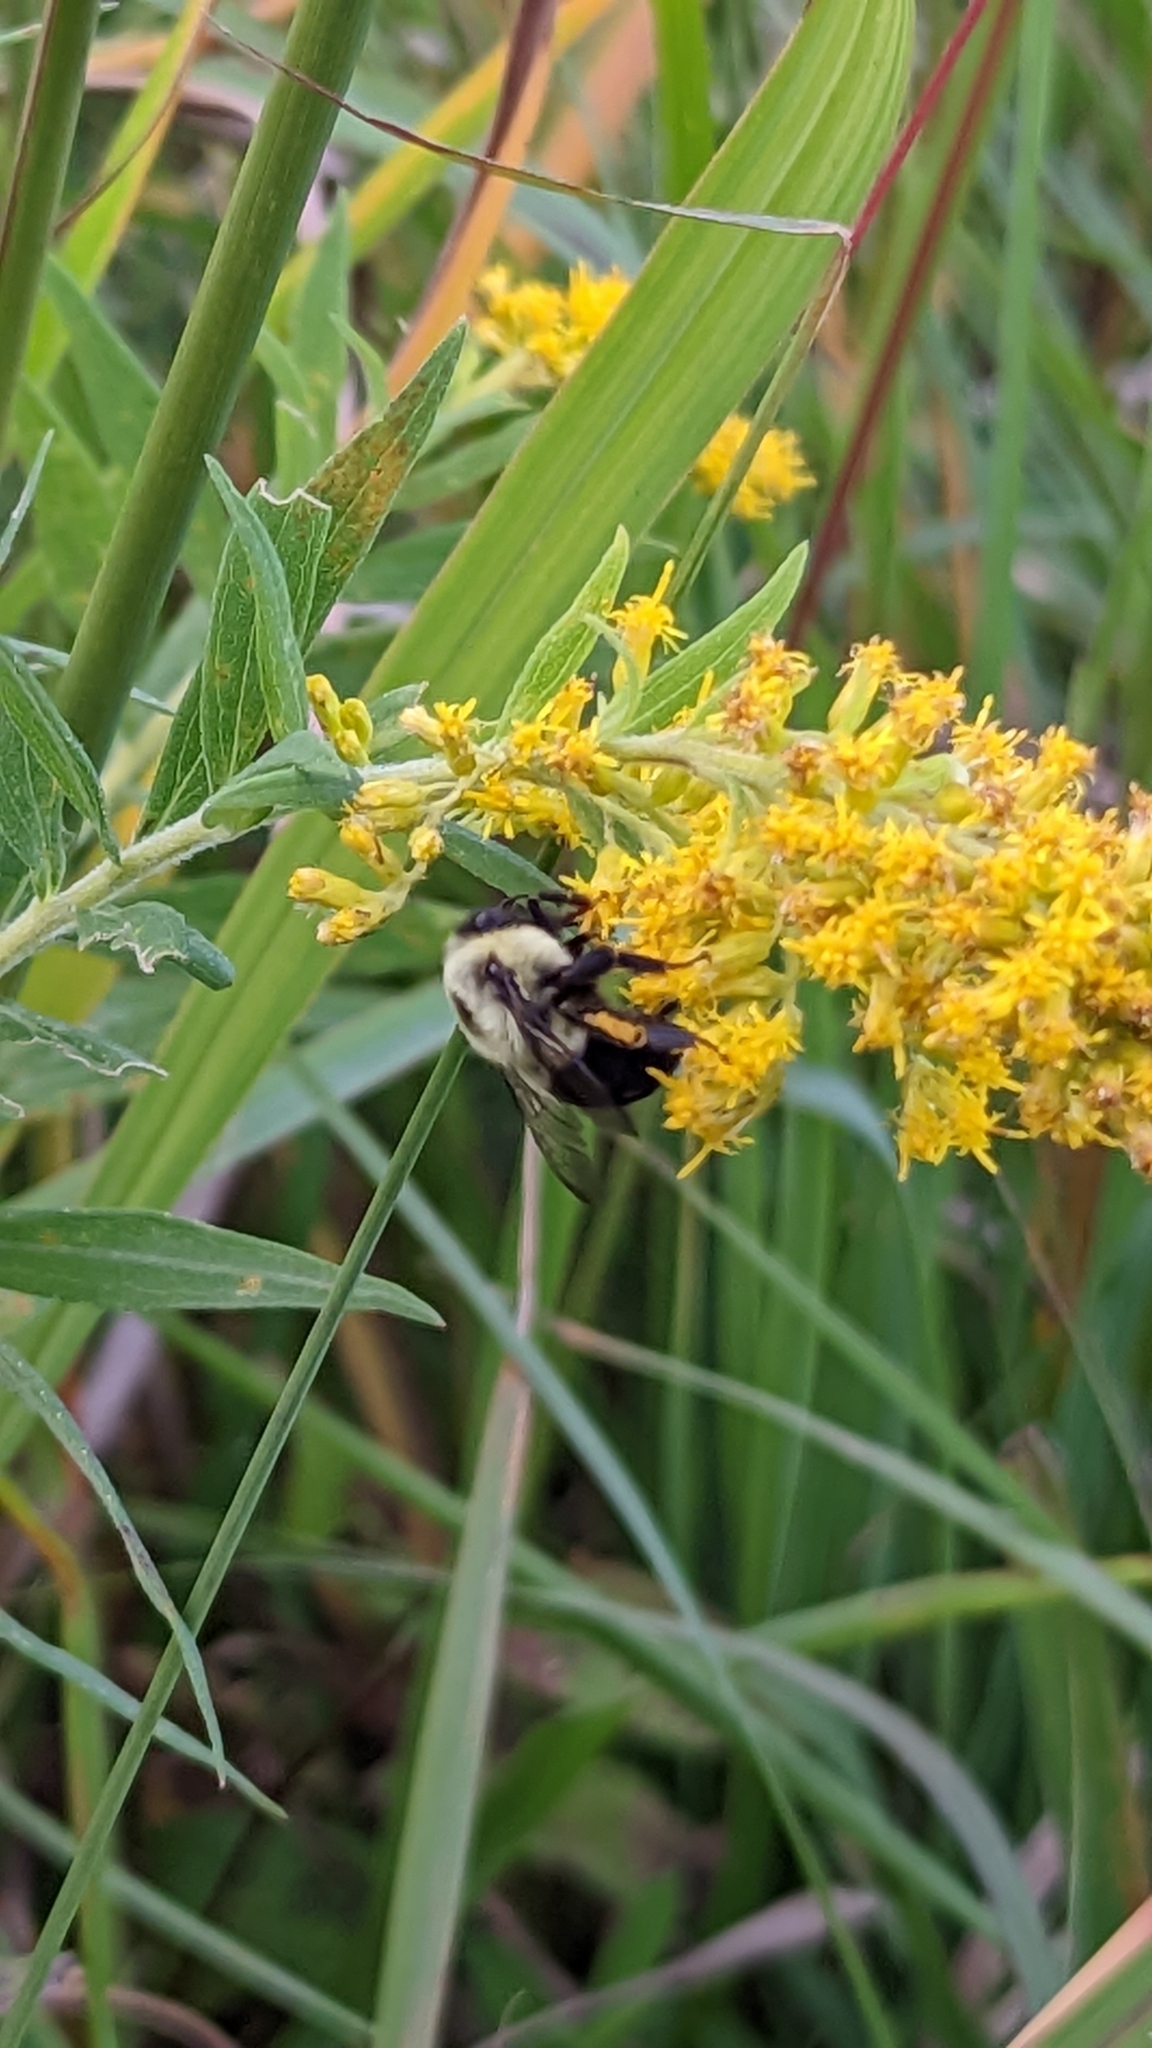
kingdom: Animalia
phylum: Arthropoda
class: Insecta
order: Hymenoptera
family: Apidae
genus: Bombus
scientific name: Bombus impatiens
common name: Common eastern bumble bee
